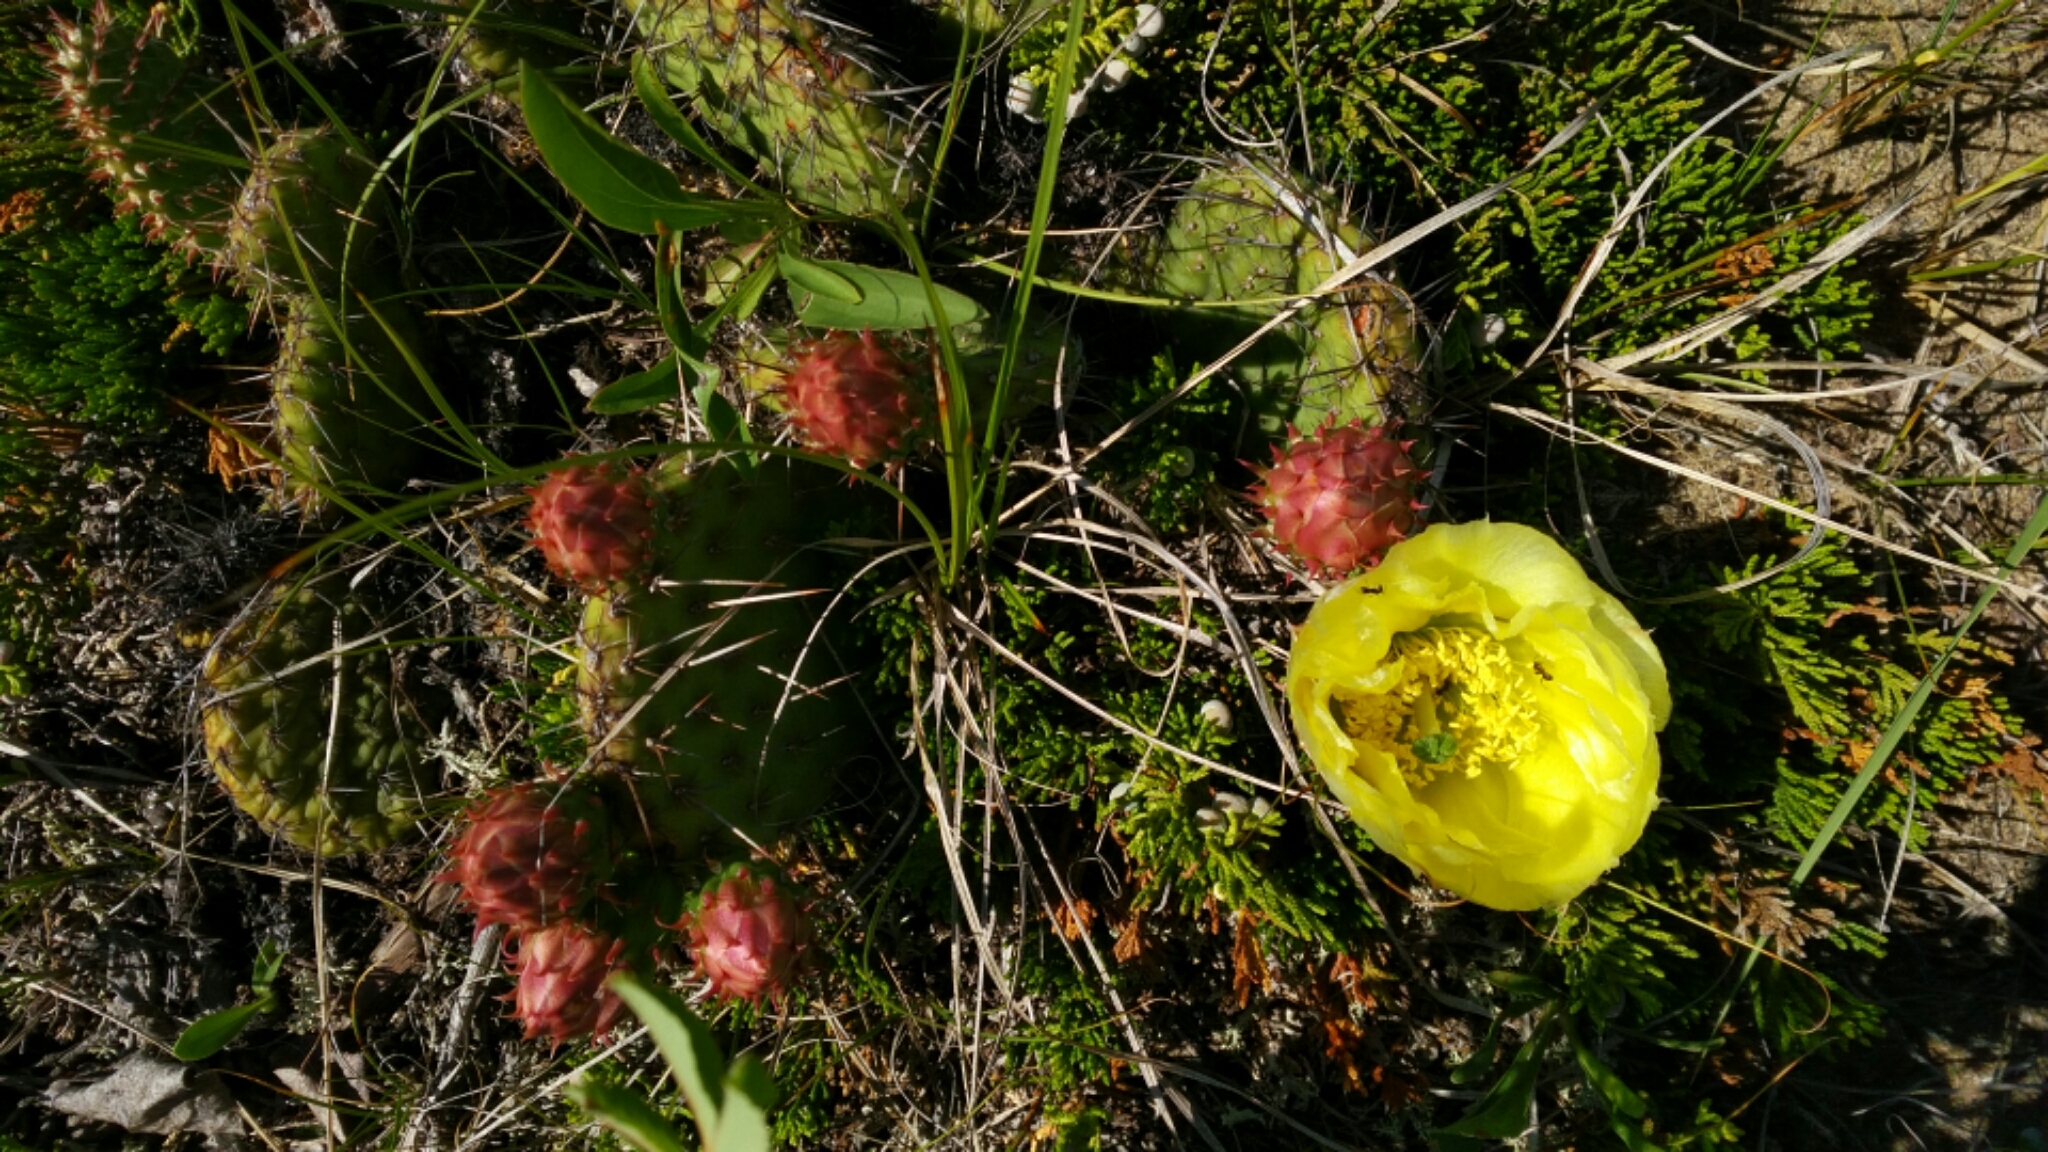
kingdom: Plantae
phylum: Tracheophyta
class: Magnoliopsida
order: Caryophyllales
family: Cactaceae
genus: Opuntia
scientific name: Opuntia polyacantha
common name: Plains prickly-pear
